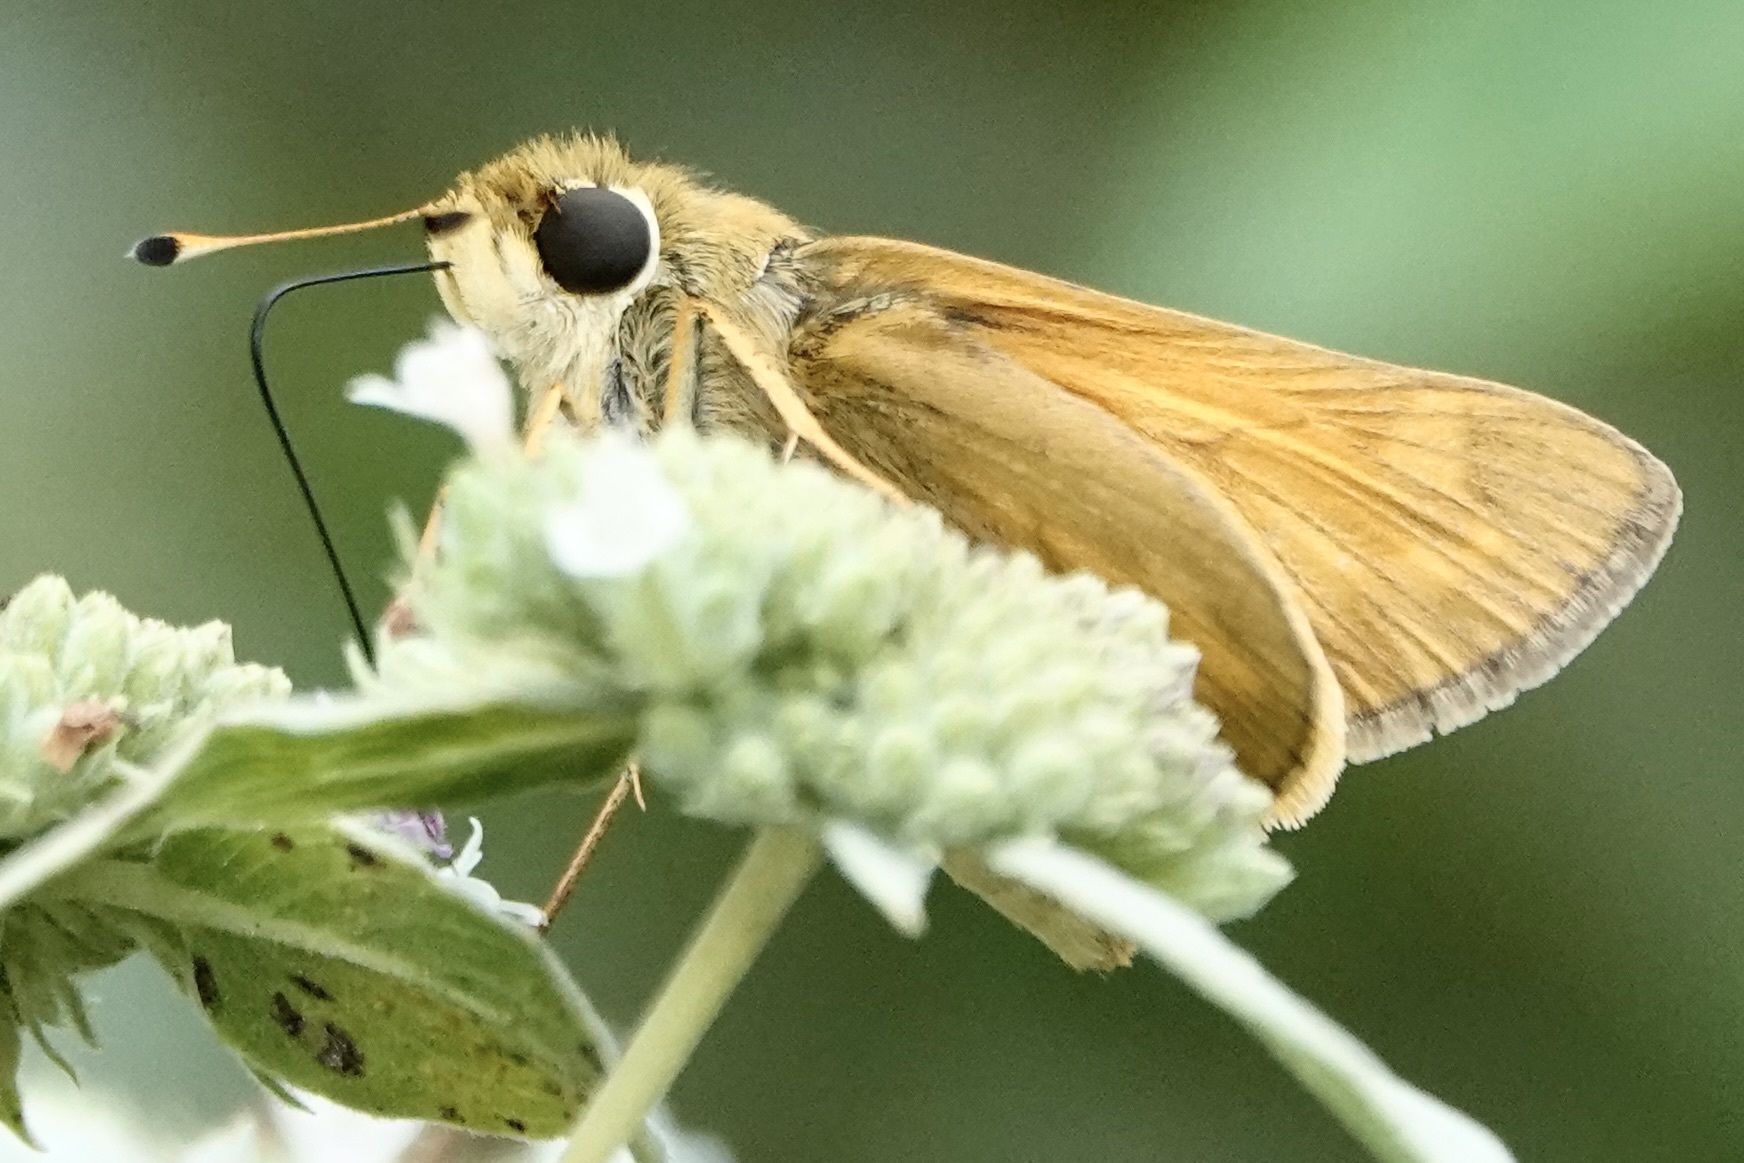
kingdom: Animalia
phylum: Arthropoda
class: Insecta
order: Lepidoptera
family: Hesperiidae
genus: Atalopedes
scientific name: Atalopedes
